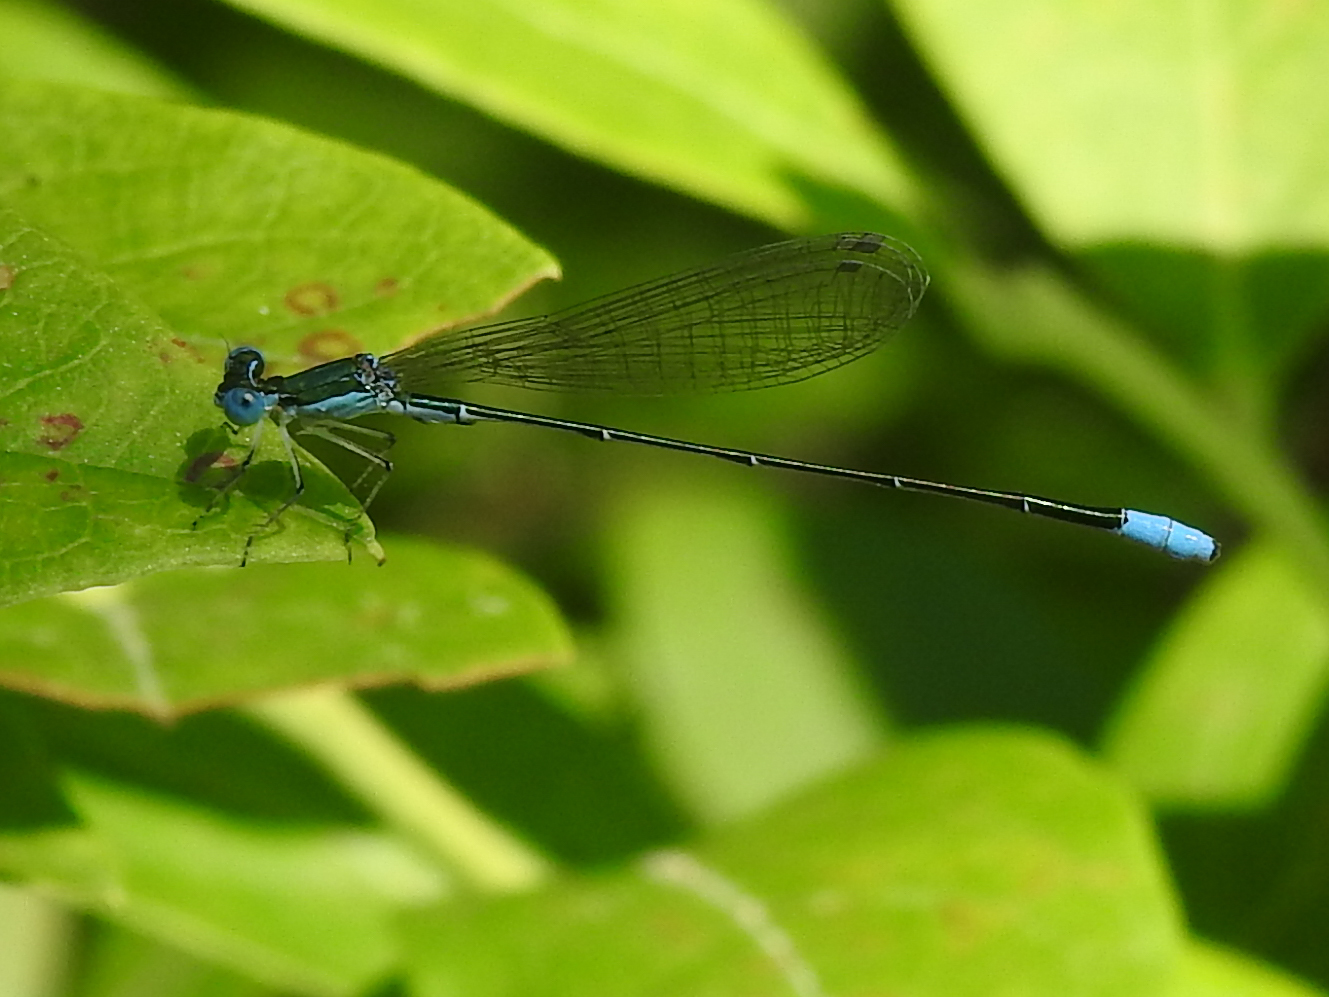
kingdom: Animalia
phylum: Arthropoda
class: Insecta
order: Odonata
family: Coenagrionidae
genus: Nehalennia
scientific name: Nehalennia gracilis
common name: Sphagnum sprite
